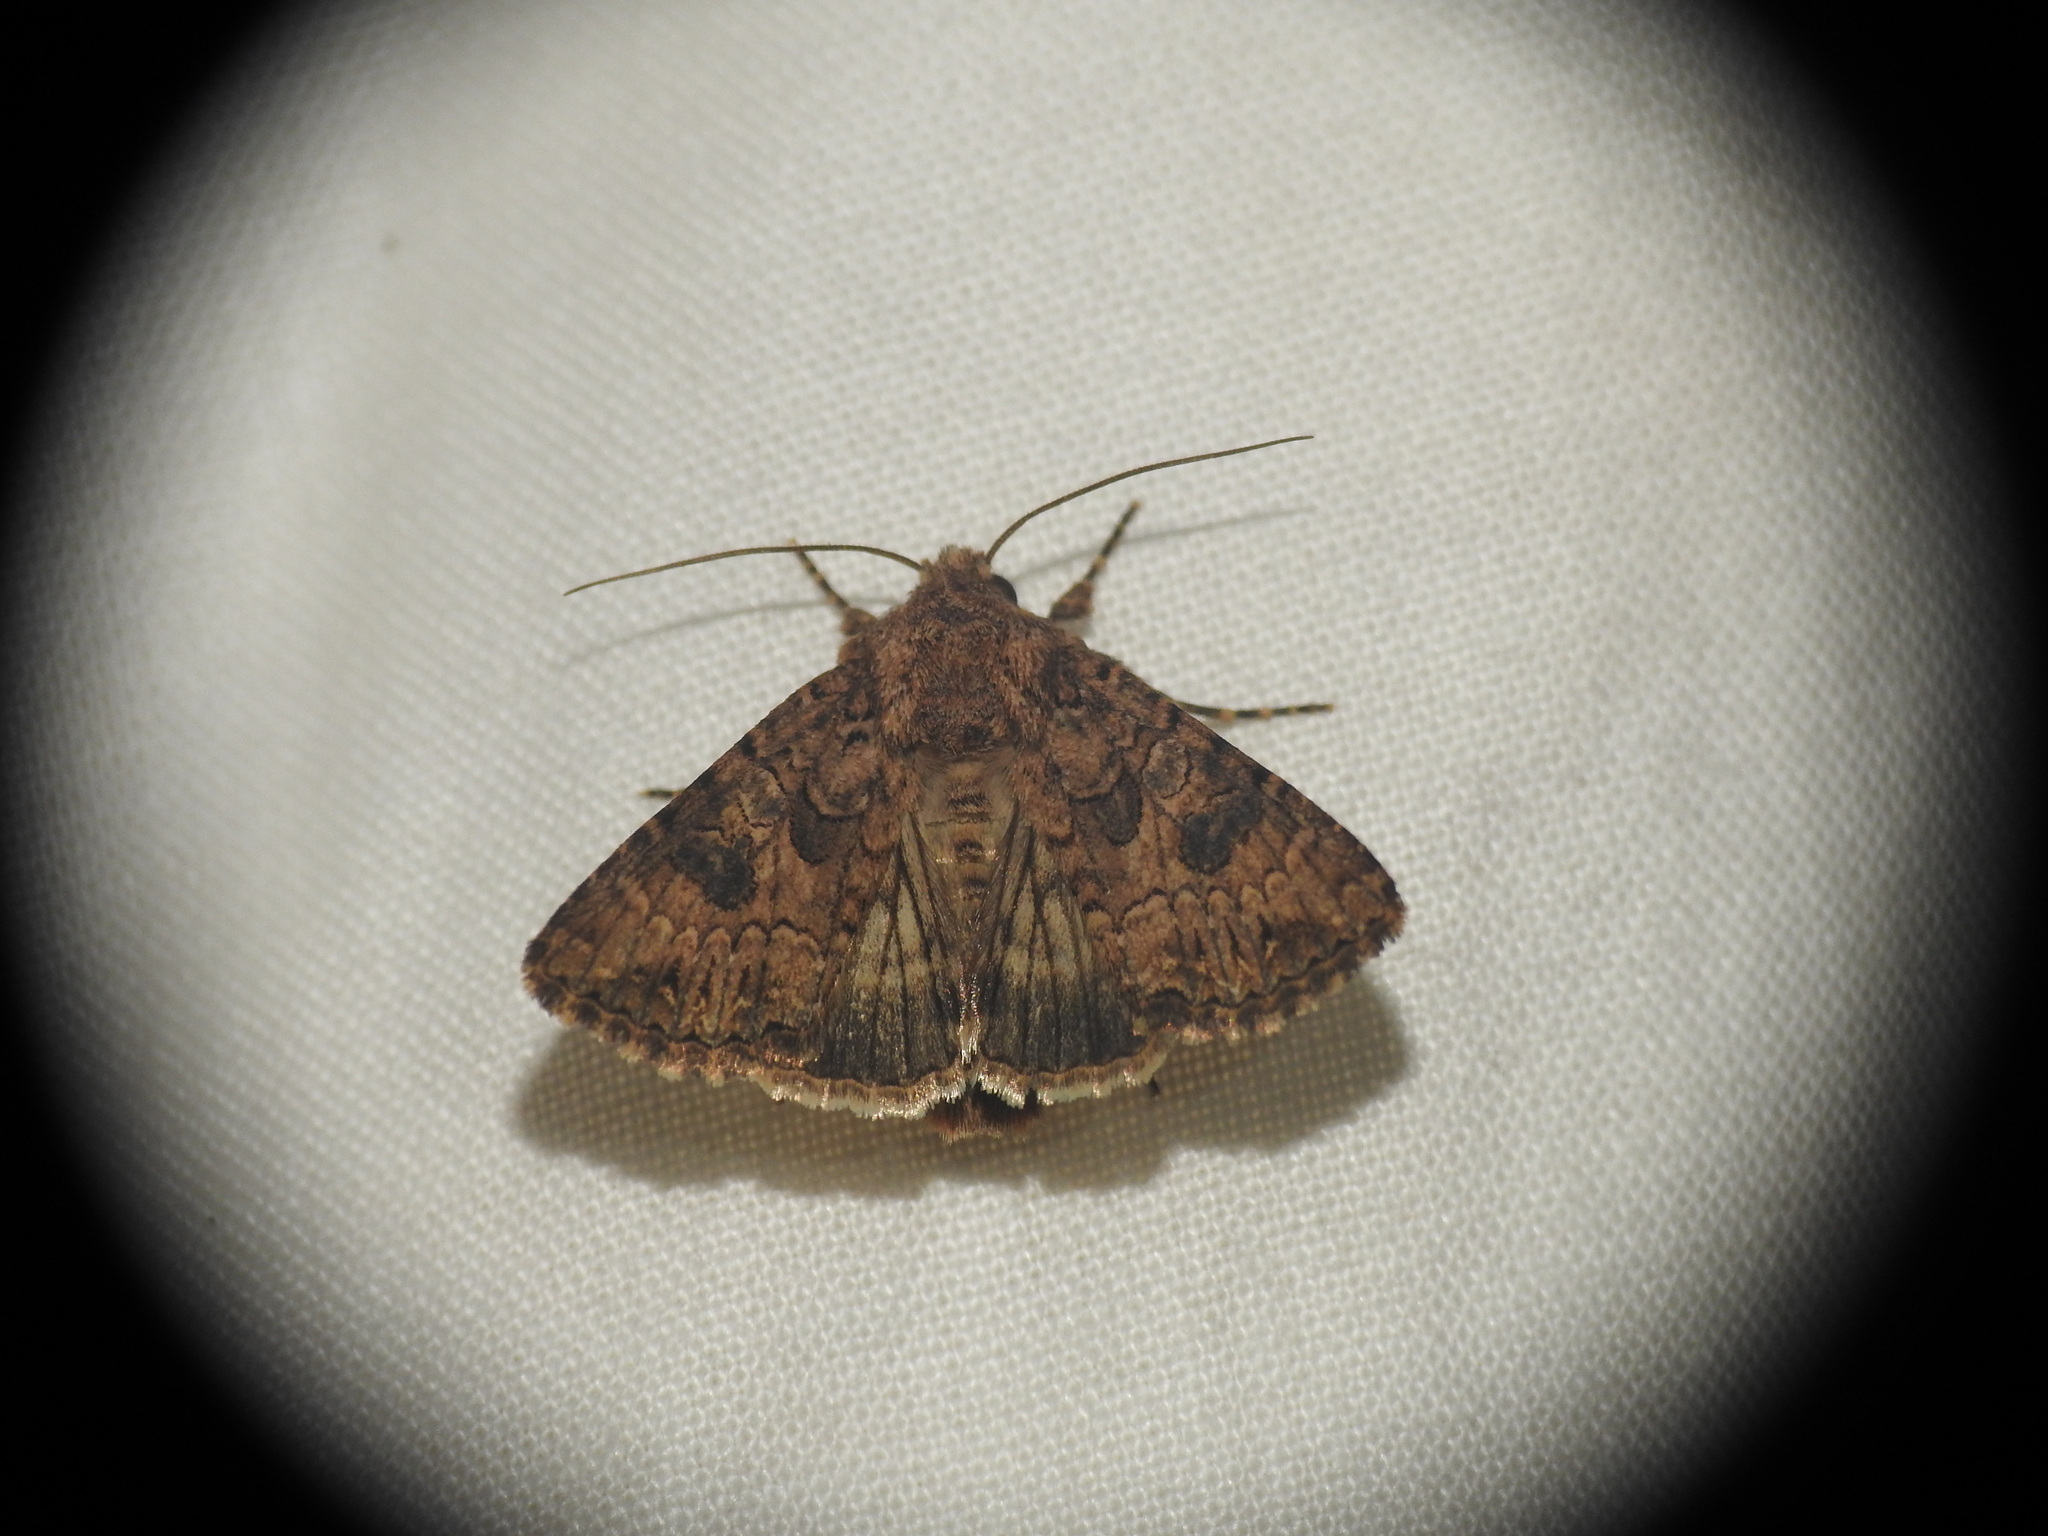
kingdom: Animalia
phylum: Arthropoda
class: Insecta
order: Lepidoptera
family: Noctuidae
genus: Anarta
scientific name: Anarta trifolii
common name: Clover cutworm moth
